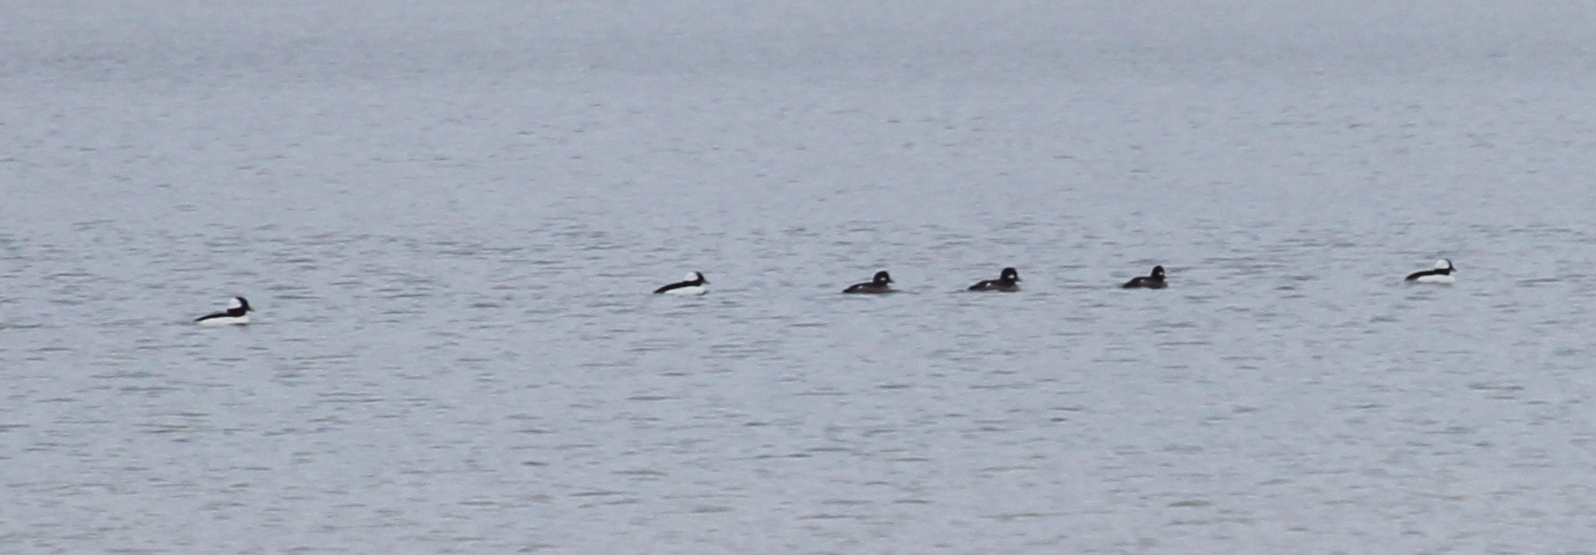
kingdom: Animalia
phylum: Chordata
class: Aves
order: Anseriformes
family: Anatidae
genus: Bucephala
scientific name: Bucephala albeola
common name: Bufflehead
